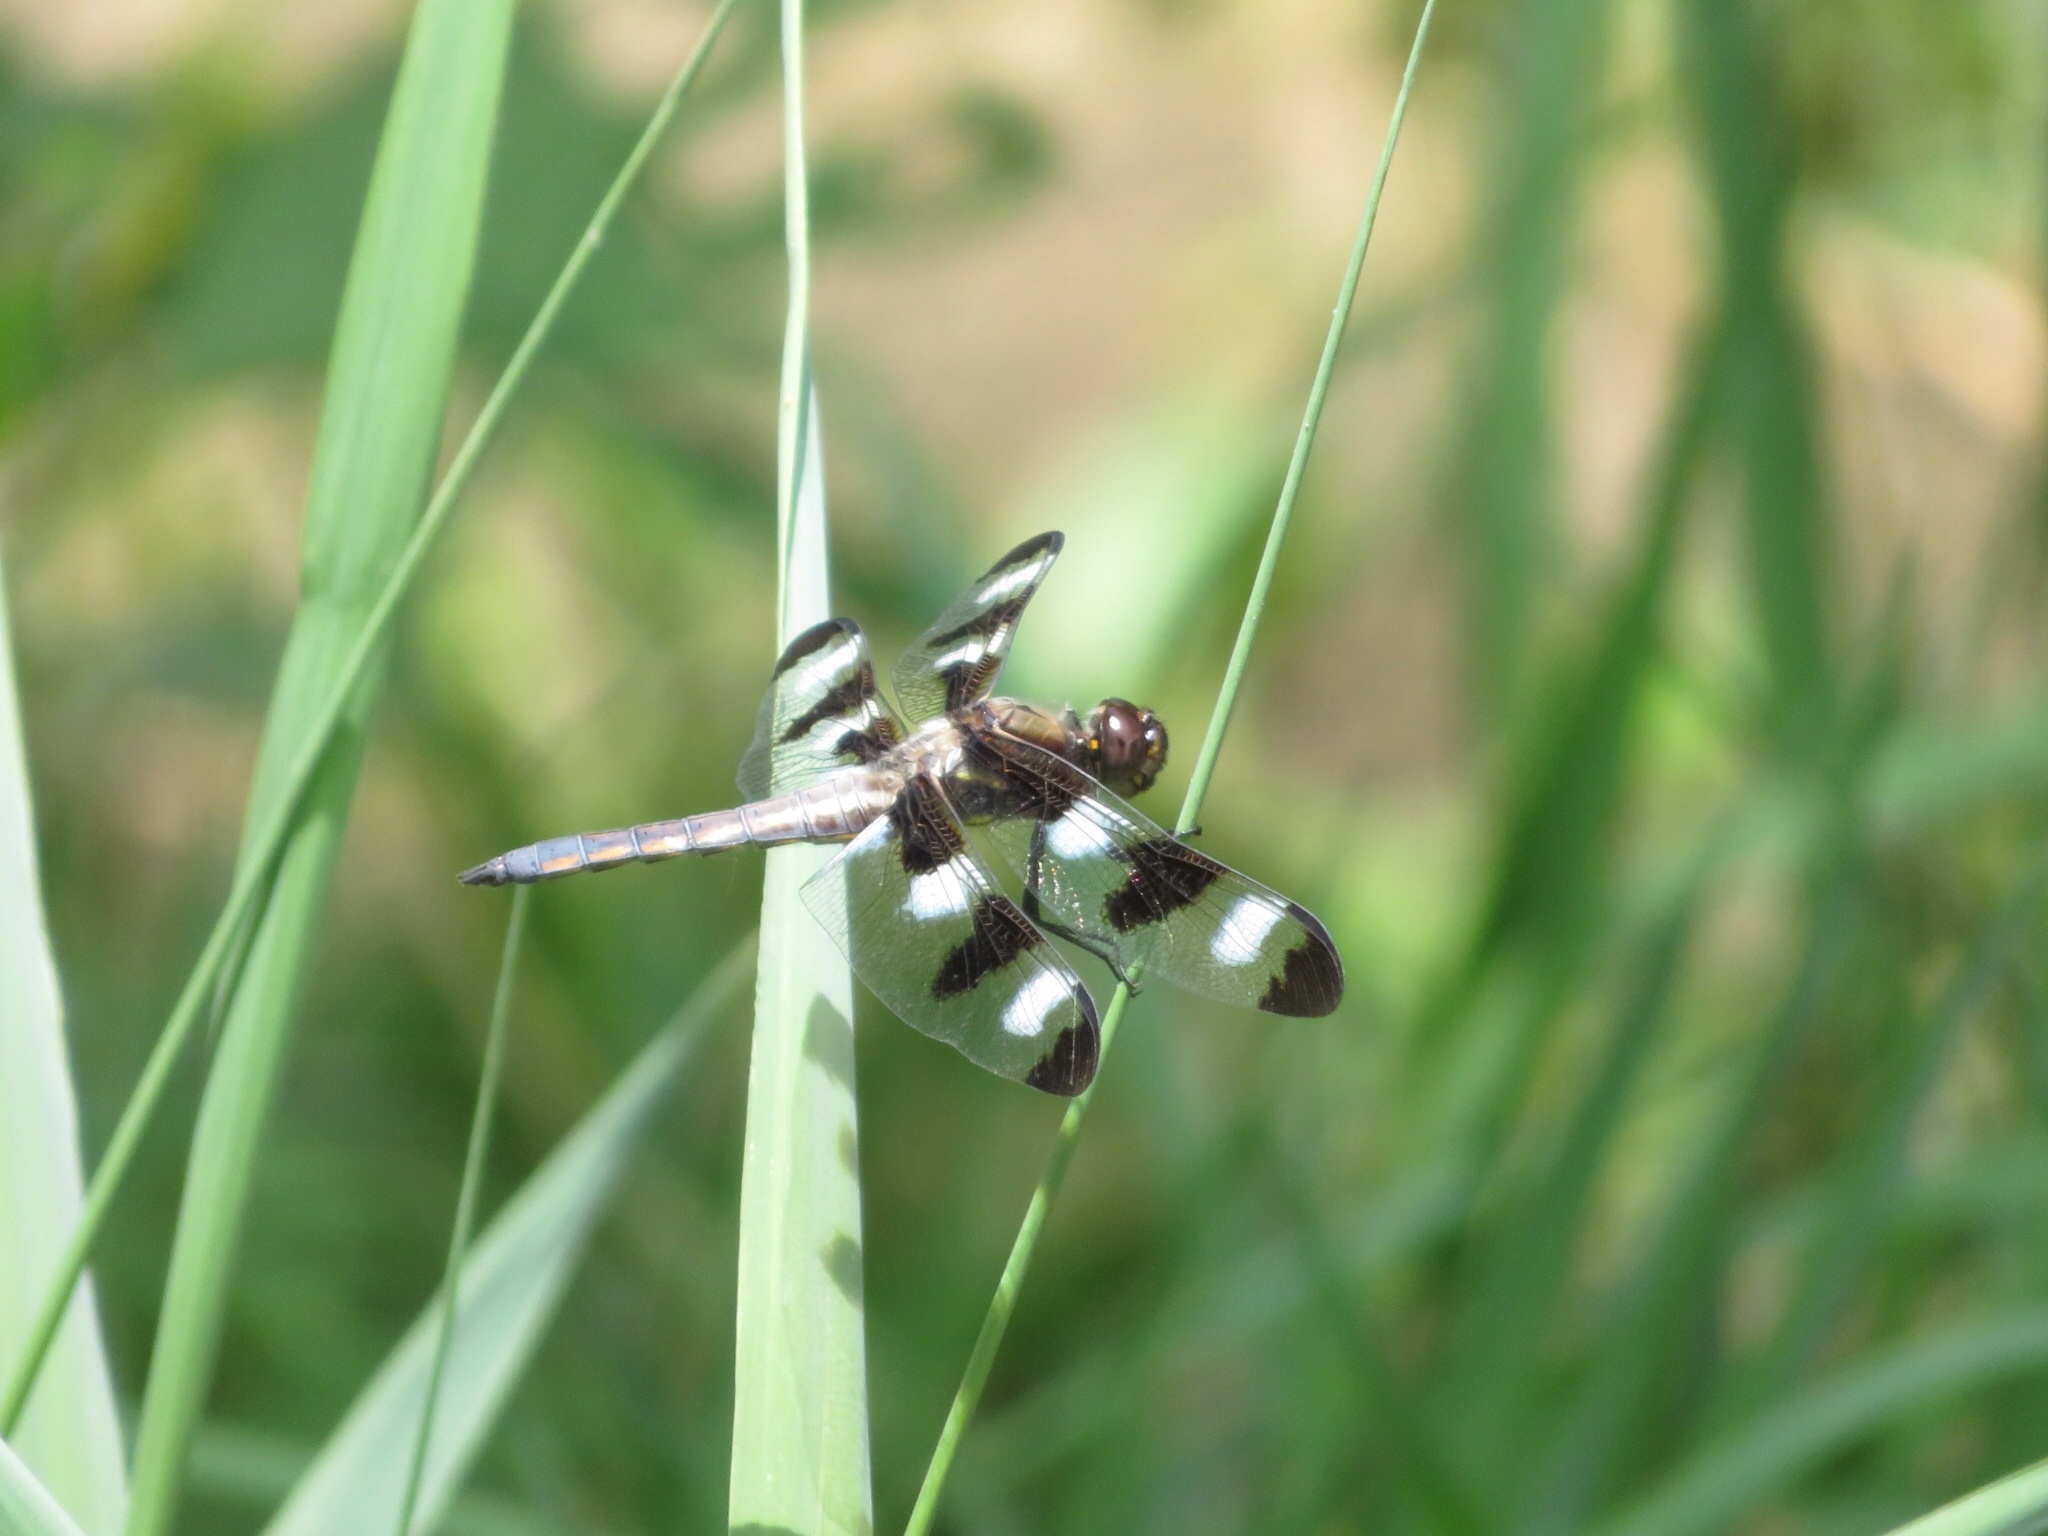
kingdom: Animalia
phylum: Arthropoda
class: Insecta
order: Odonata
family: Libellulidae
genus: Libellula
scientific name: Libellula pulchella
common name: Twelve-spotted skimmer
